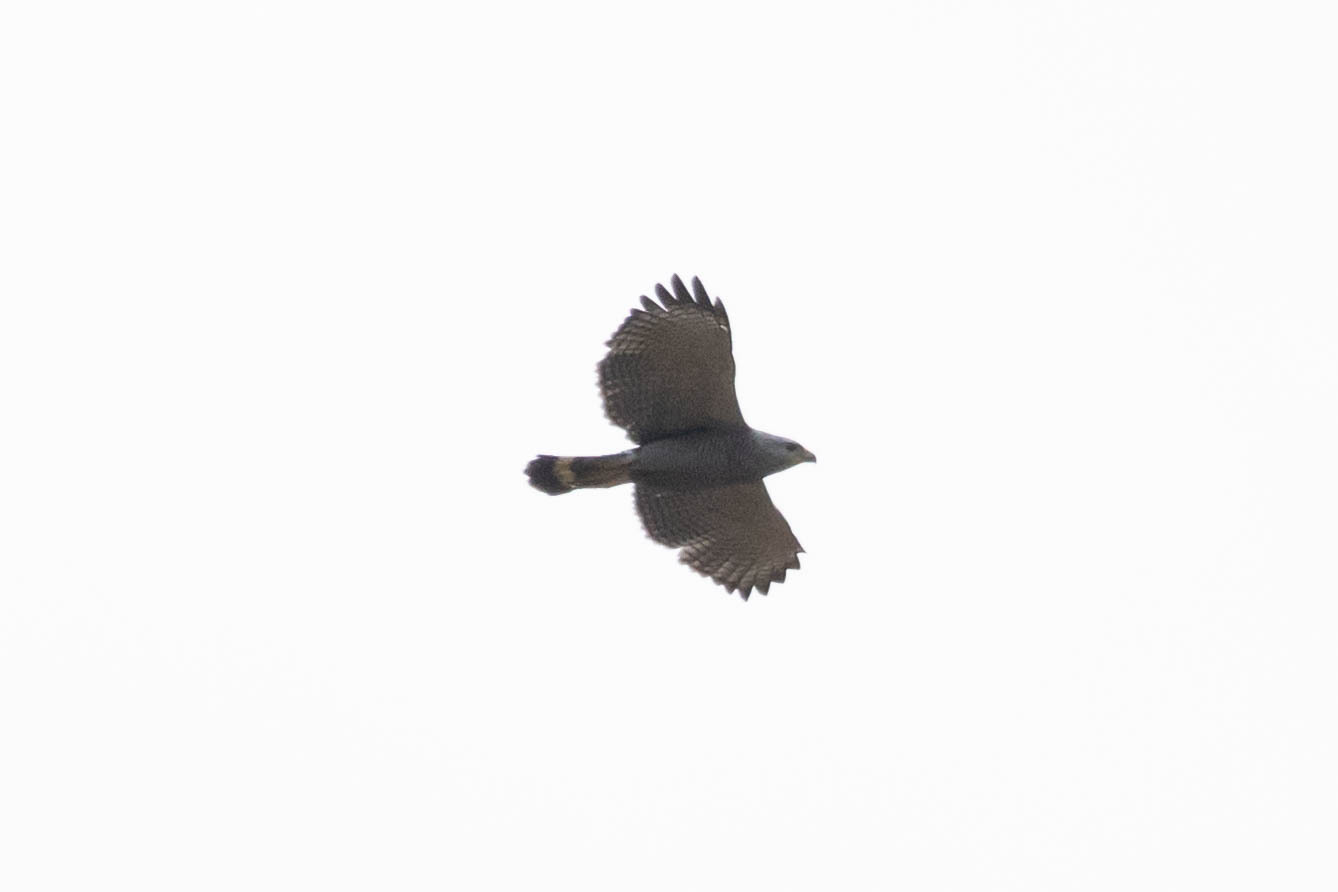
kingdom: Animalia
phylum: Chordata
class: Aves
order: Accipitriformes
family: Accipitridae
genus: Buteo
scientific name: Buteo nitidus
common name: Grey-lined hawk
